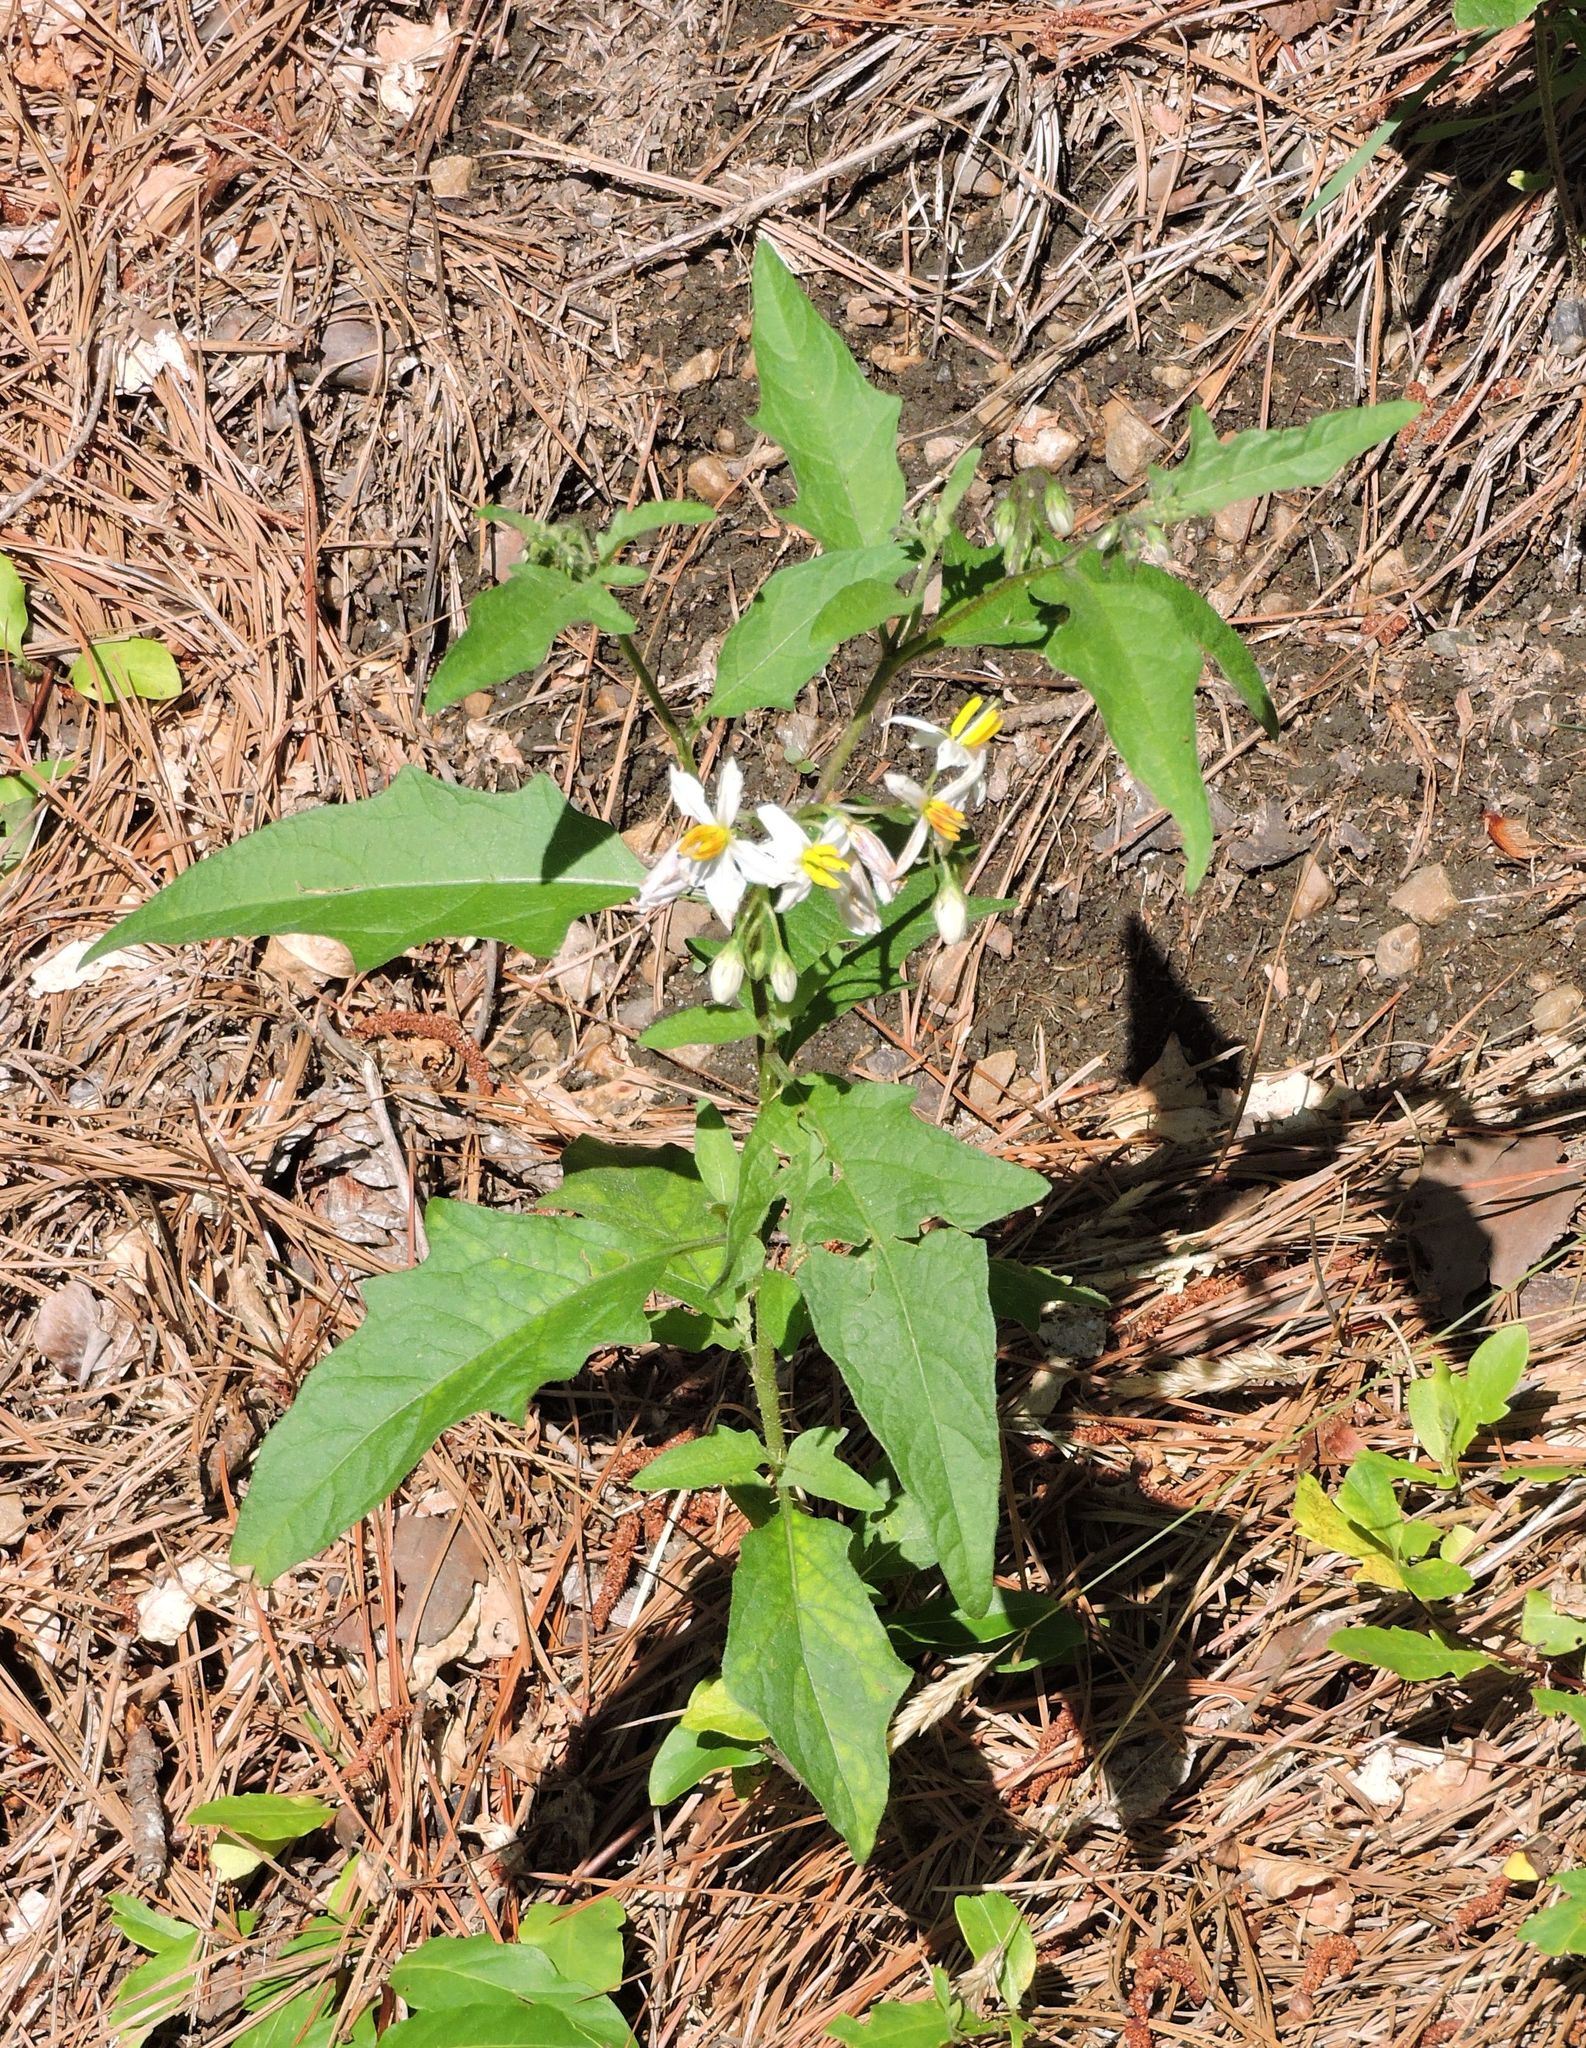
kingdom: Plantae
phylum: Tracheophyta
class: Magnoliopsida
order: Solanales
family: Solanaceae
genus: Solanum
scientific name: Solanum carolinense
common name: Horse-nettle
